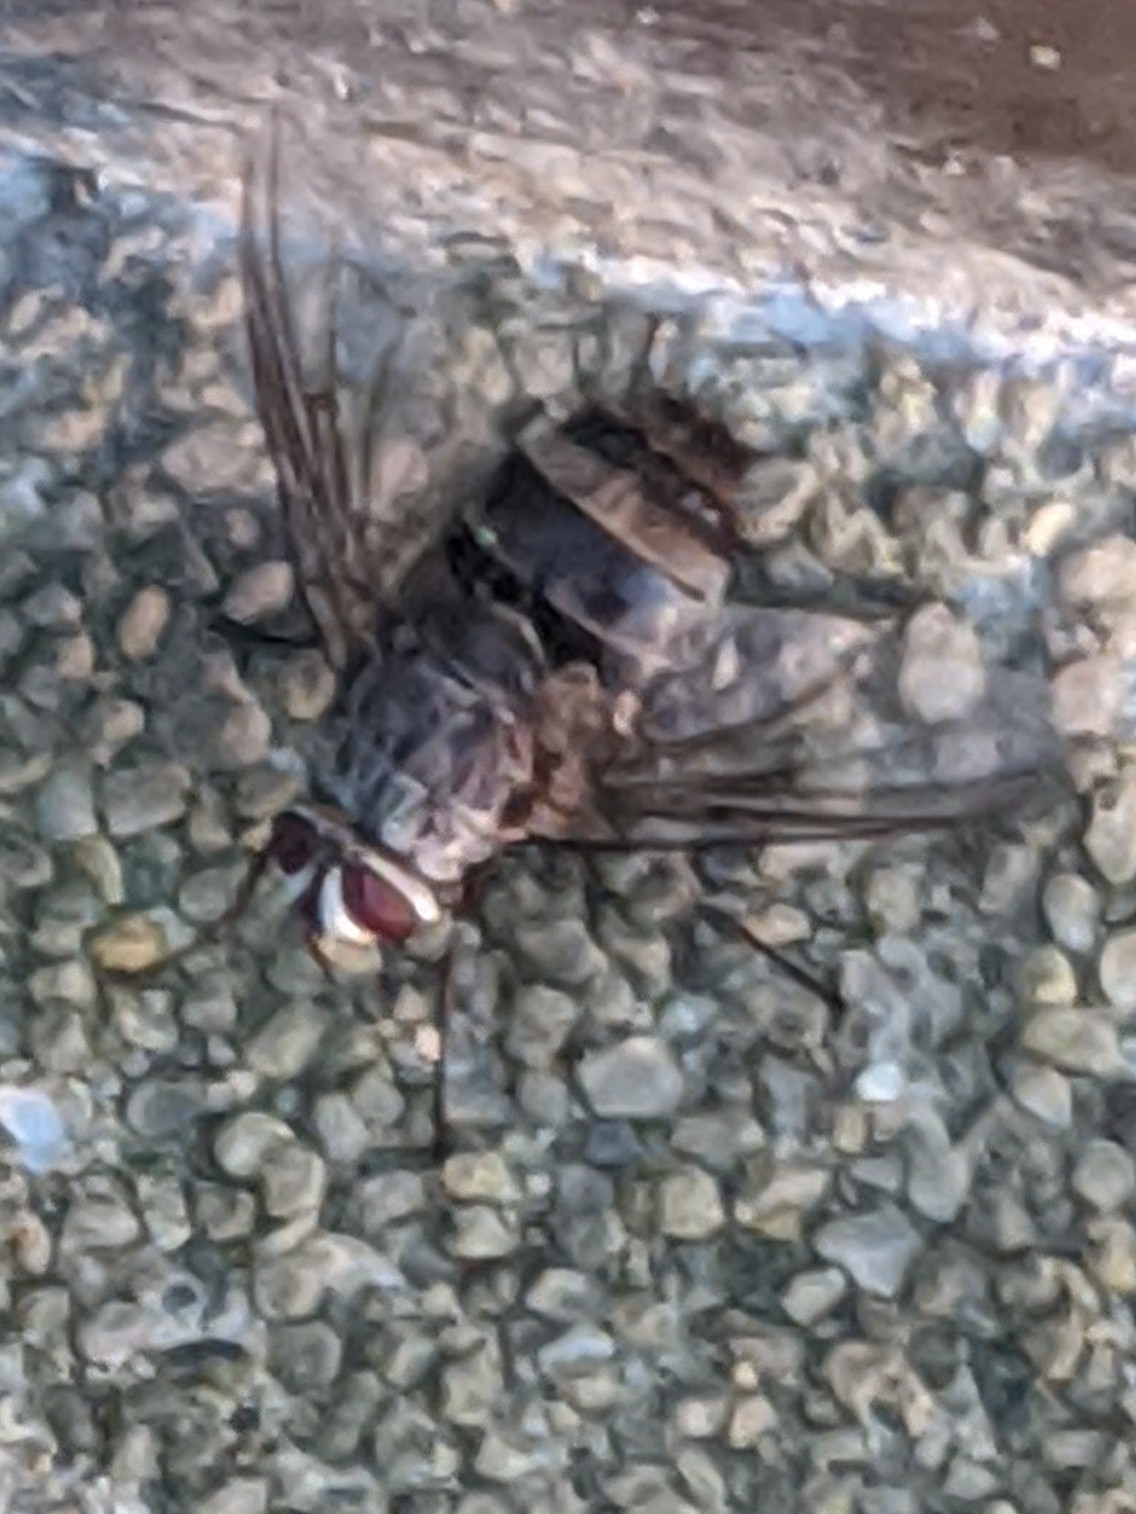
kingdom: Animalia
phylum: Arthropoda
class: Insecta
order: Diptera
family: Tachinidae
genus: Billaea
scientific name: Billaea rutilans
